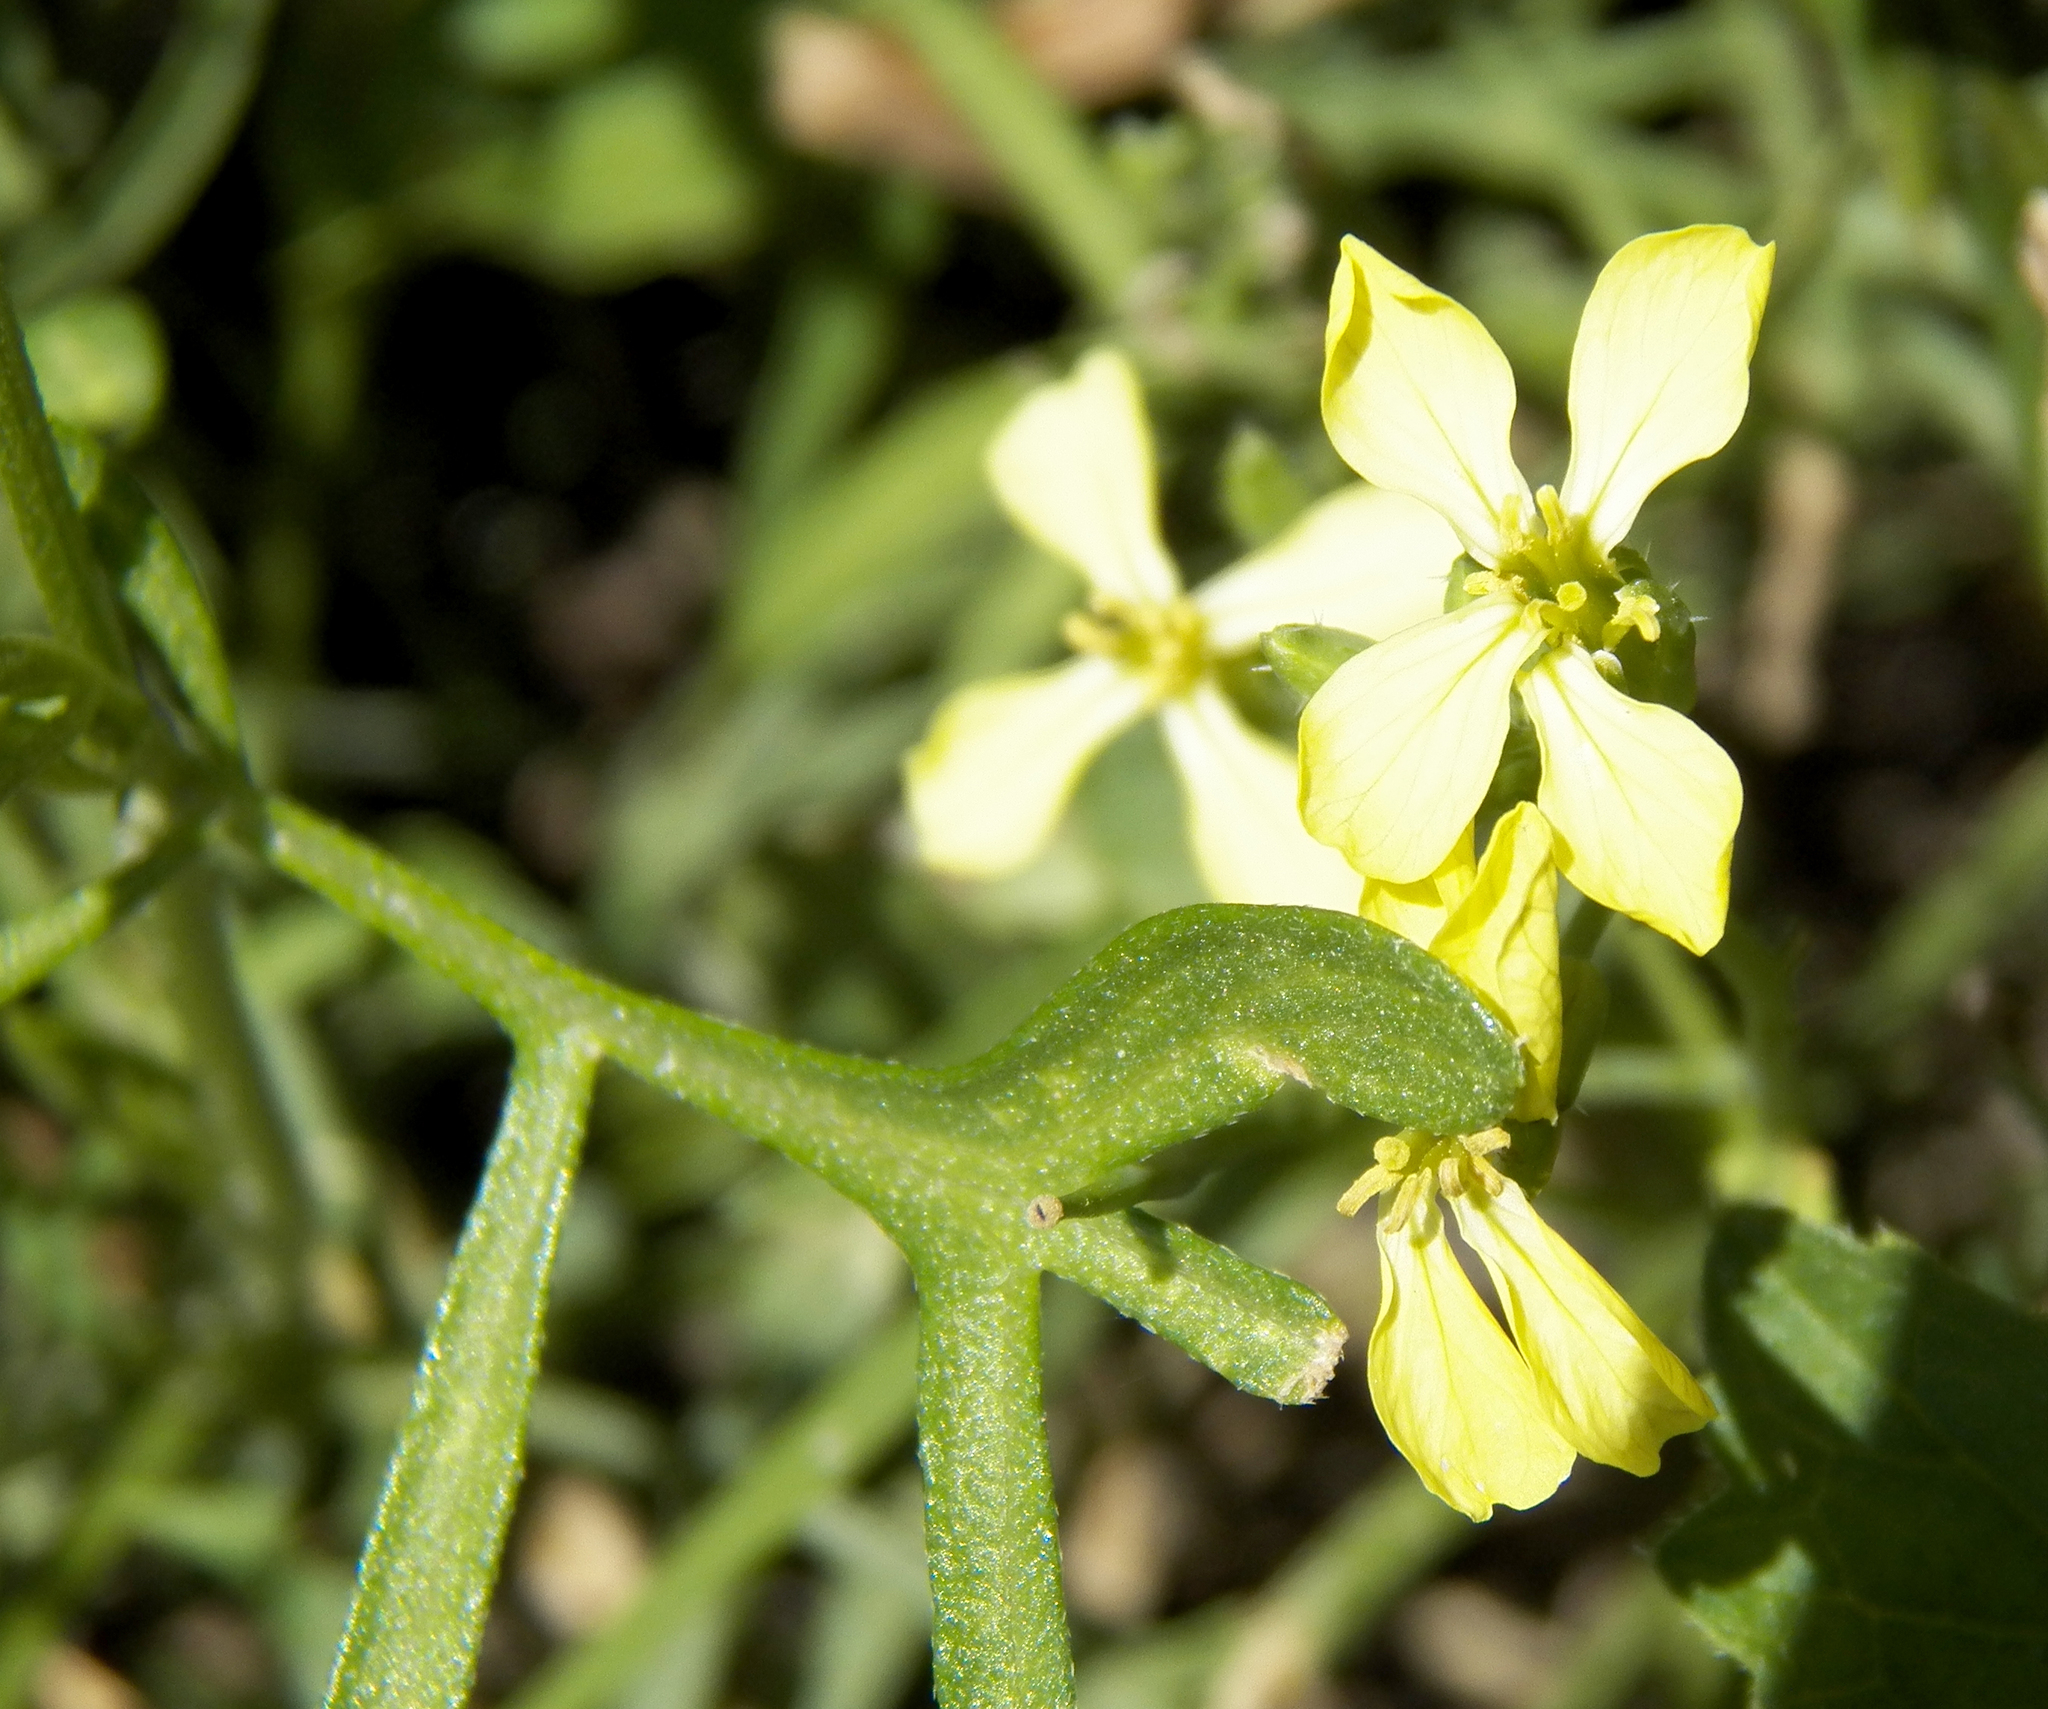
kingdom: Plantae
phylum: Tracheophyta
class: Magnoliopsida
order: Brassicales
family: Brassicaceae
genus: Raphanus
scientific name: Raphanus raphanistrum
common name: Wild radish
